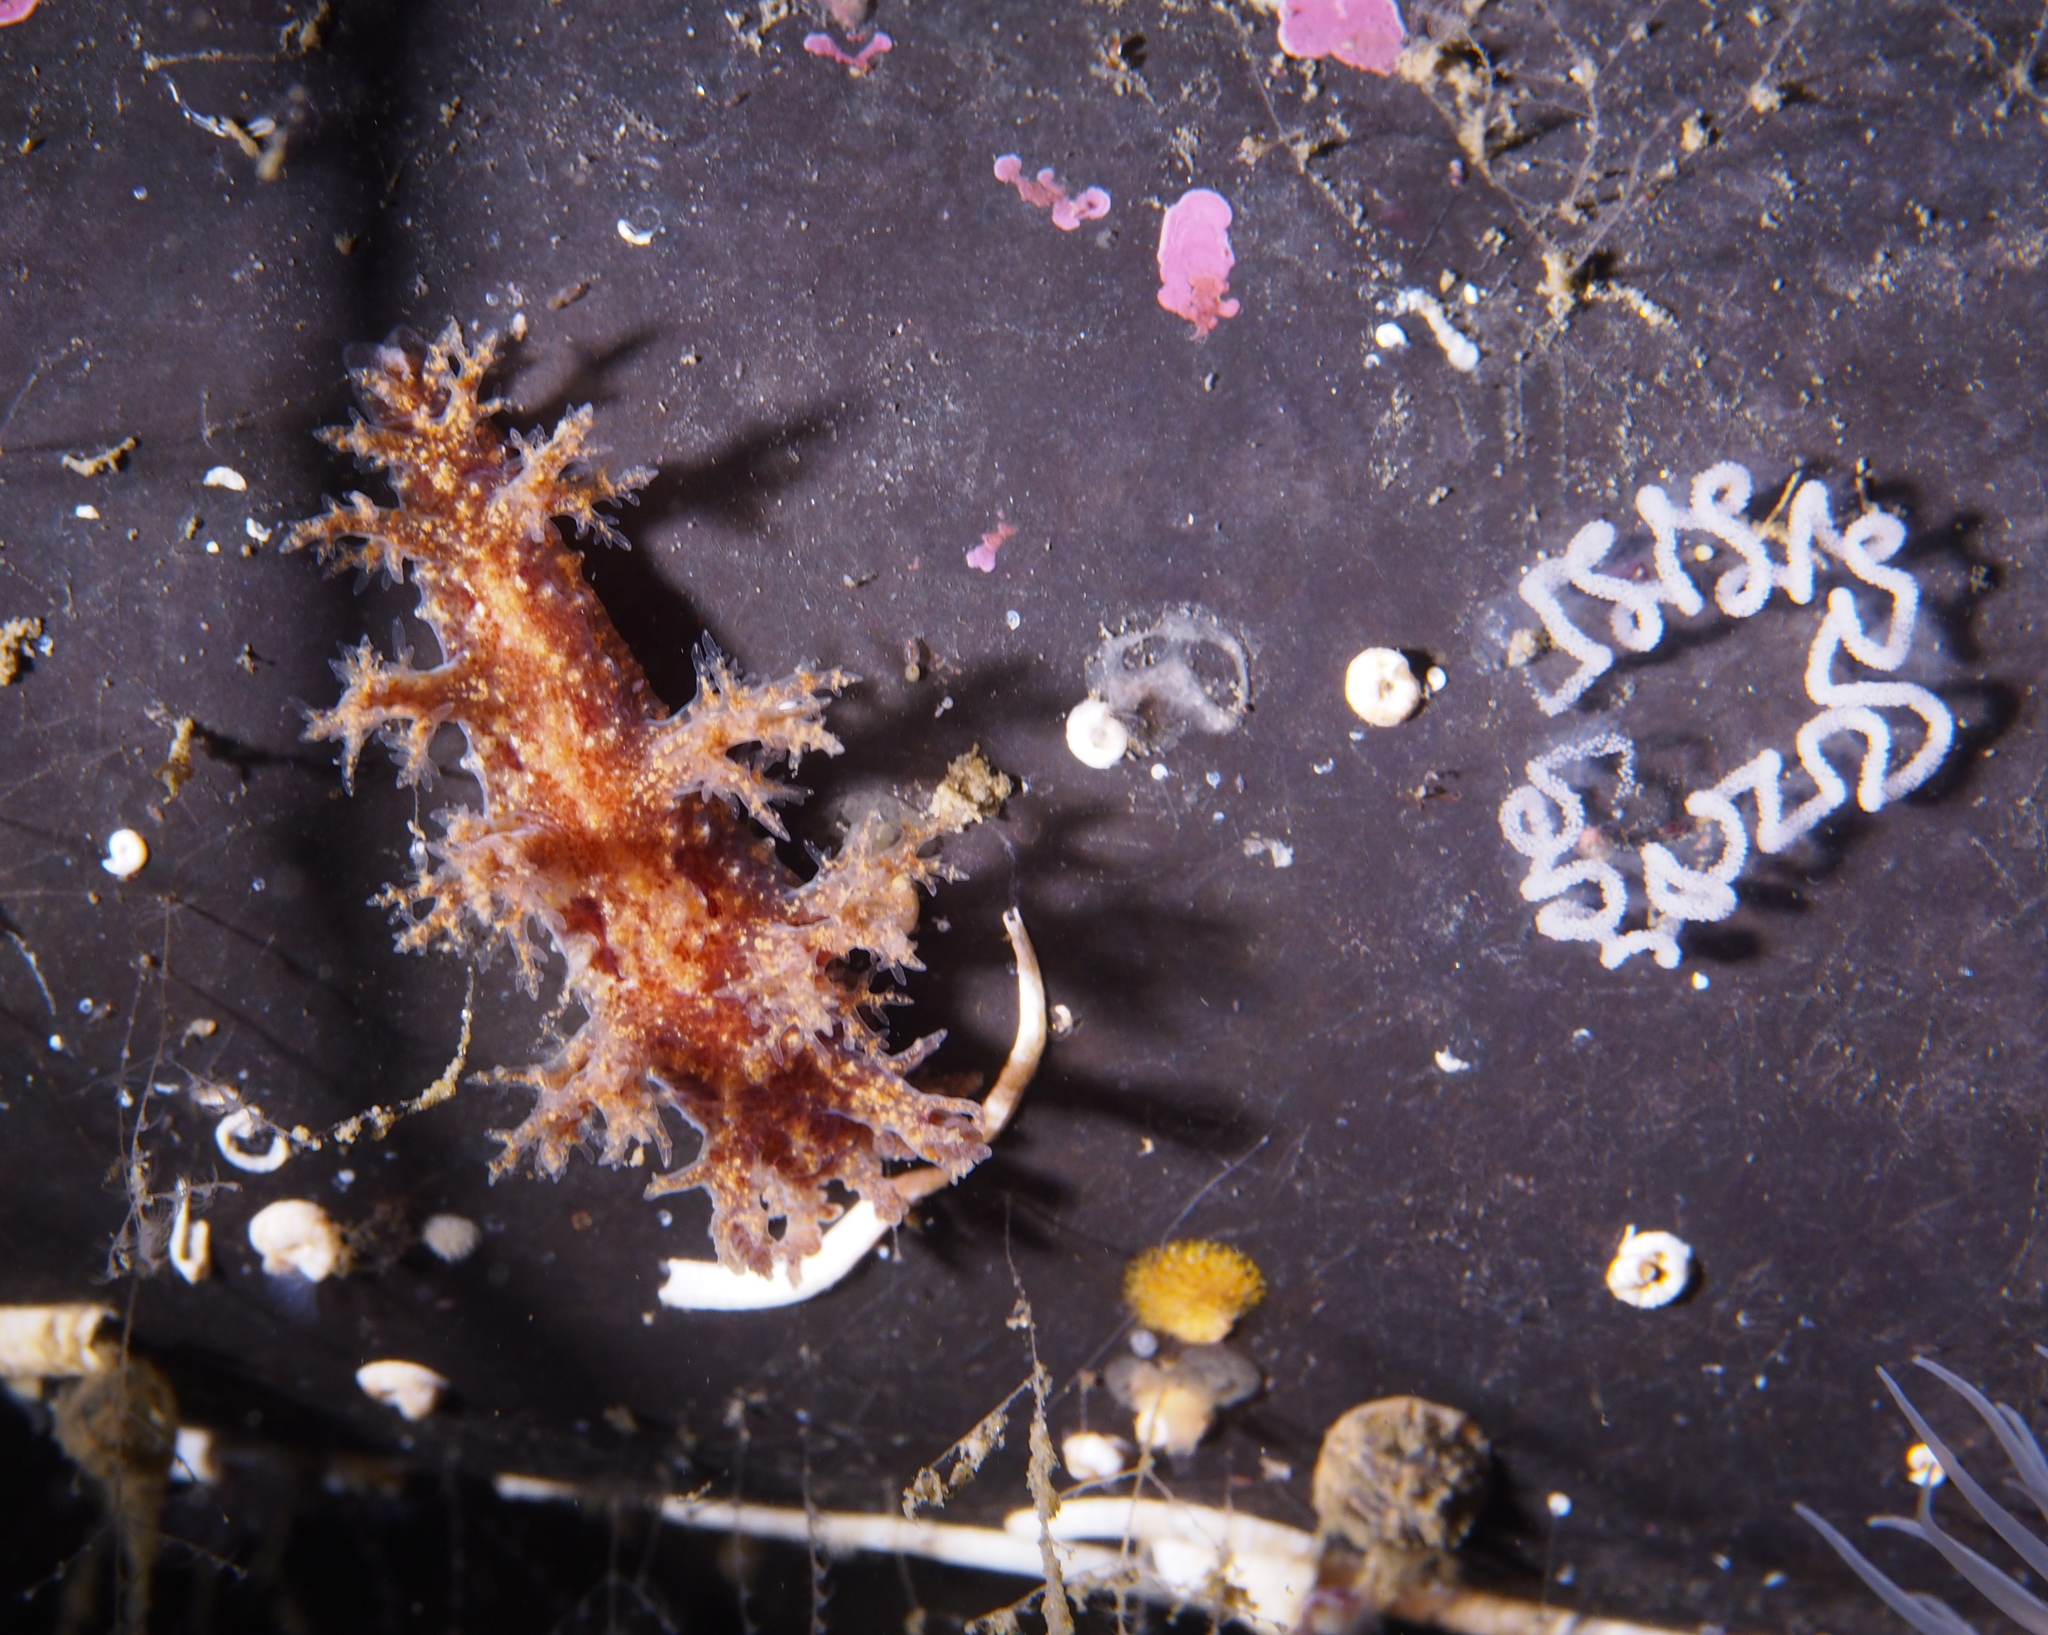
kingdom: Animalia
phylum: Mollusca
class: Gastropoda
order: Nudibranchia
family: Dendronotidae
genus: Dendronotus
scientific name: Dendronotus frondosus
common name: Bushy-backed nudibranch
